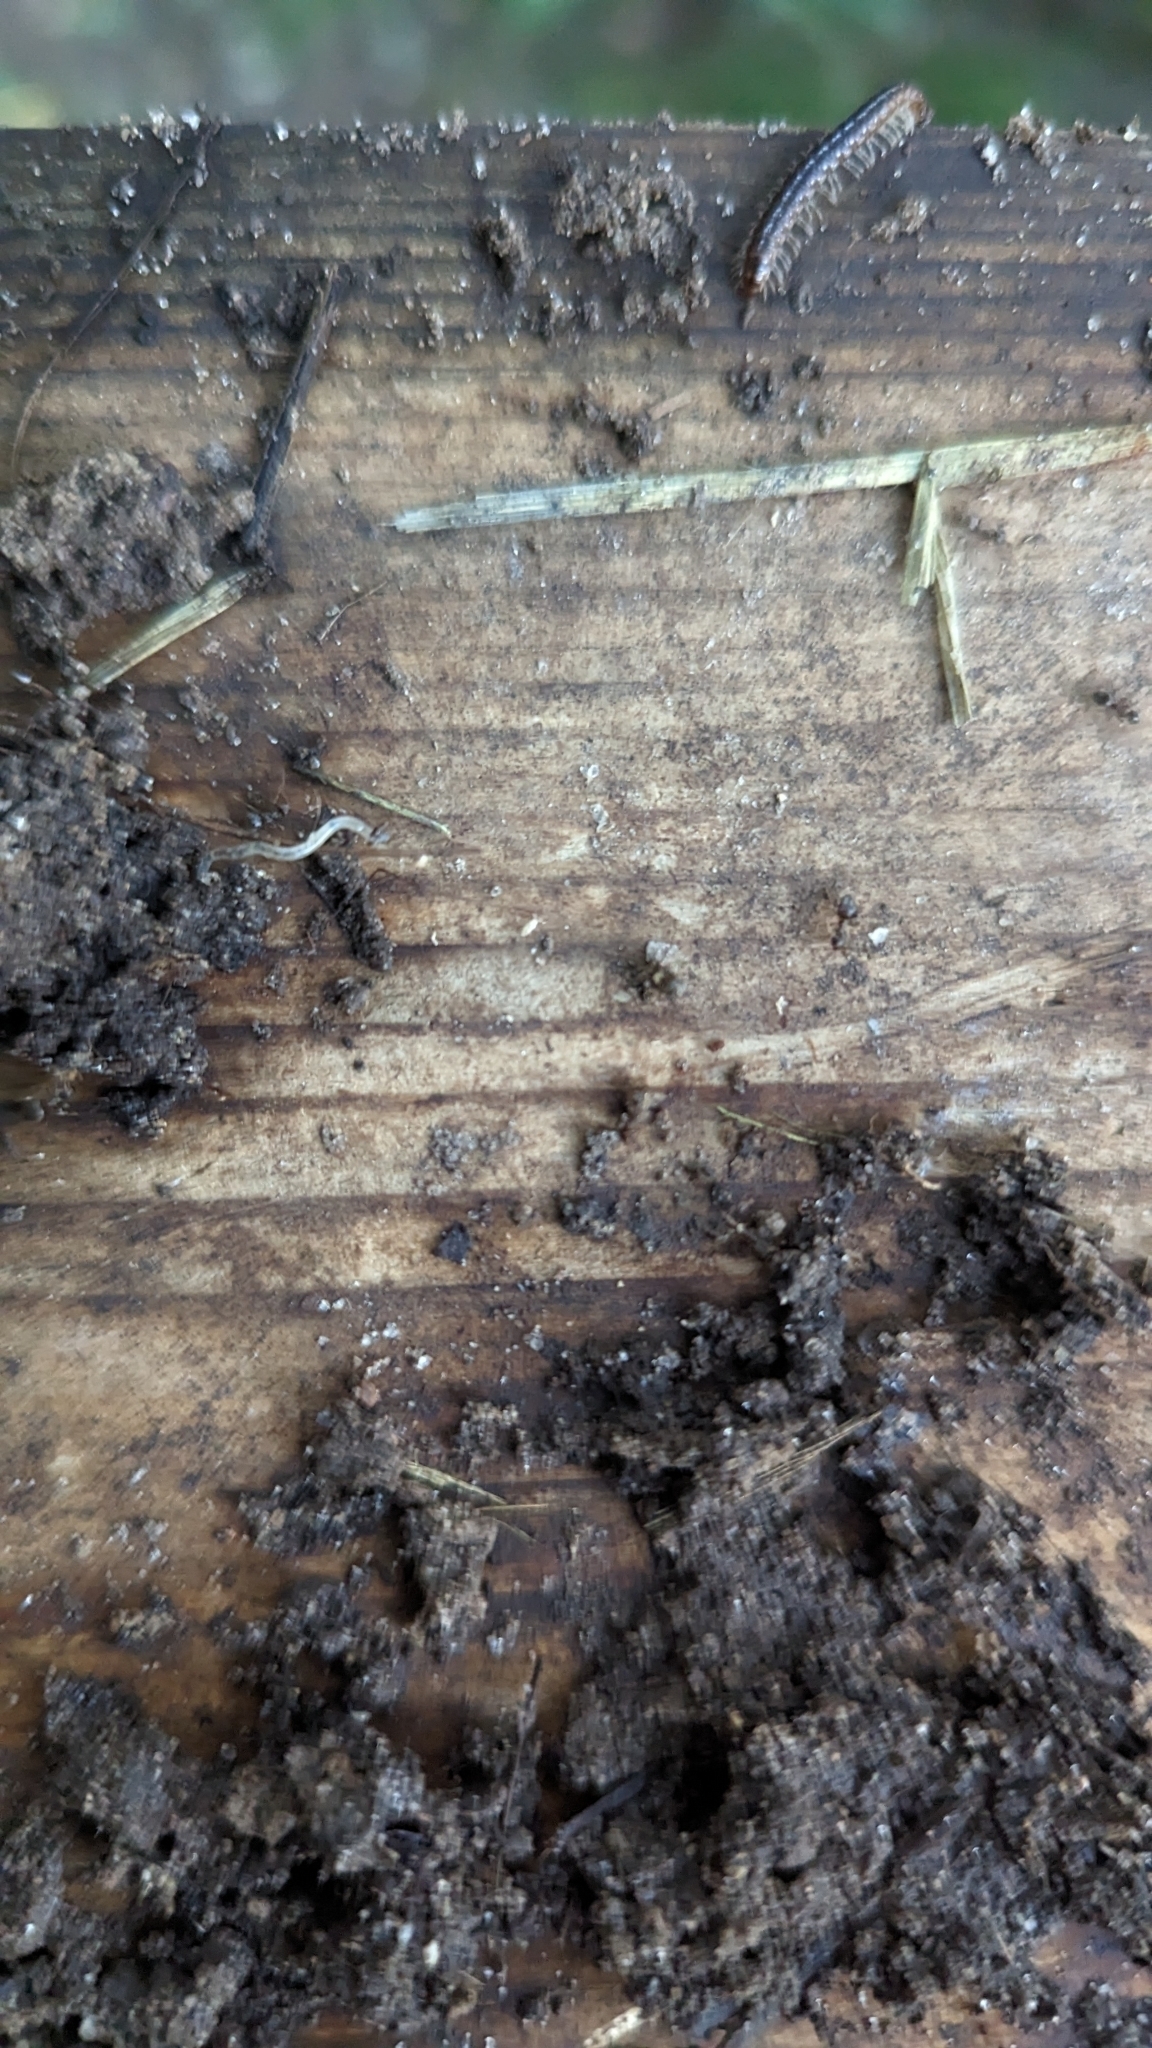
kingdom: Animalia
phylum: Arthropoda
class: Insecta
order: Hymenoptera
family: Formicidae
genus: Lasius
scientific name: Lasius americanus
